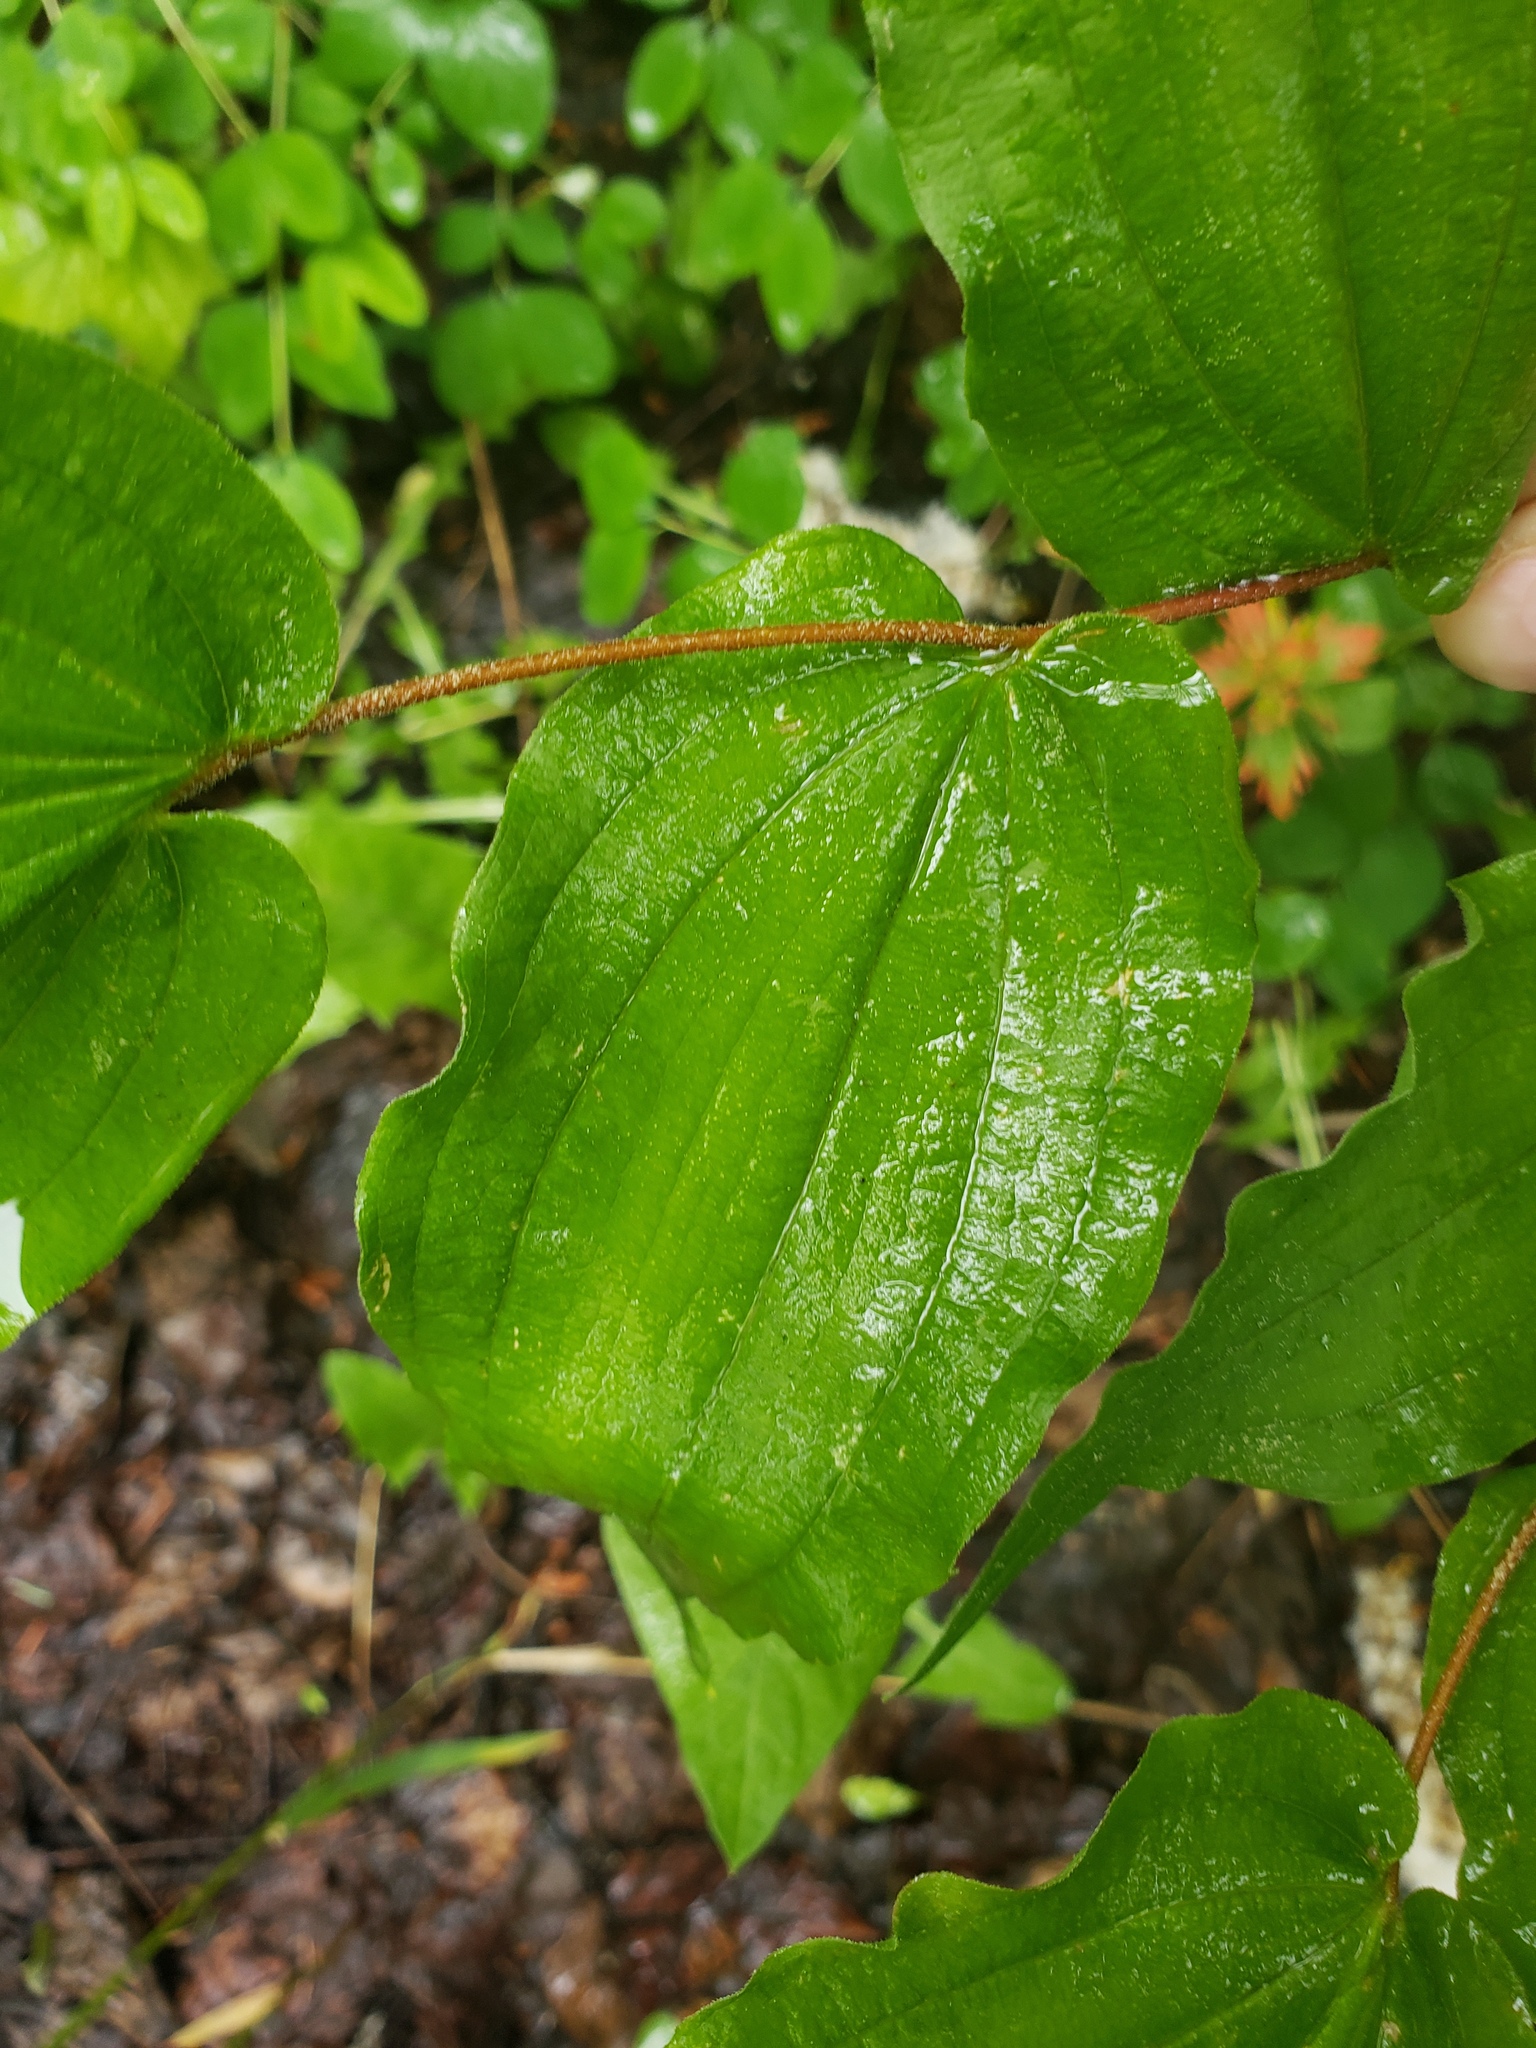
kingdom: Plantae
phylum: Tracheophyta
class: Liliopsida
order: Liliales
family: Liliaceae
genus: Prosartes
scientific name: Prosartes hookeri
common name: Fairy-bells
